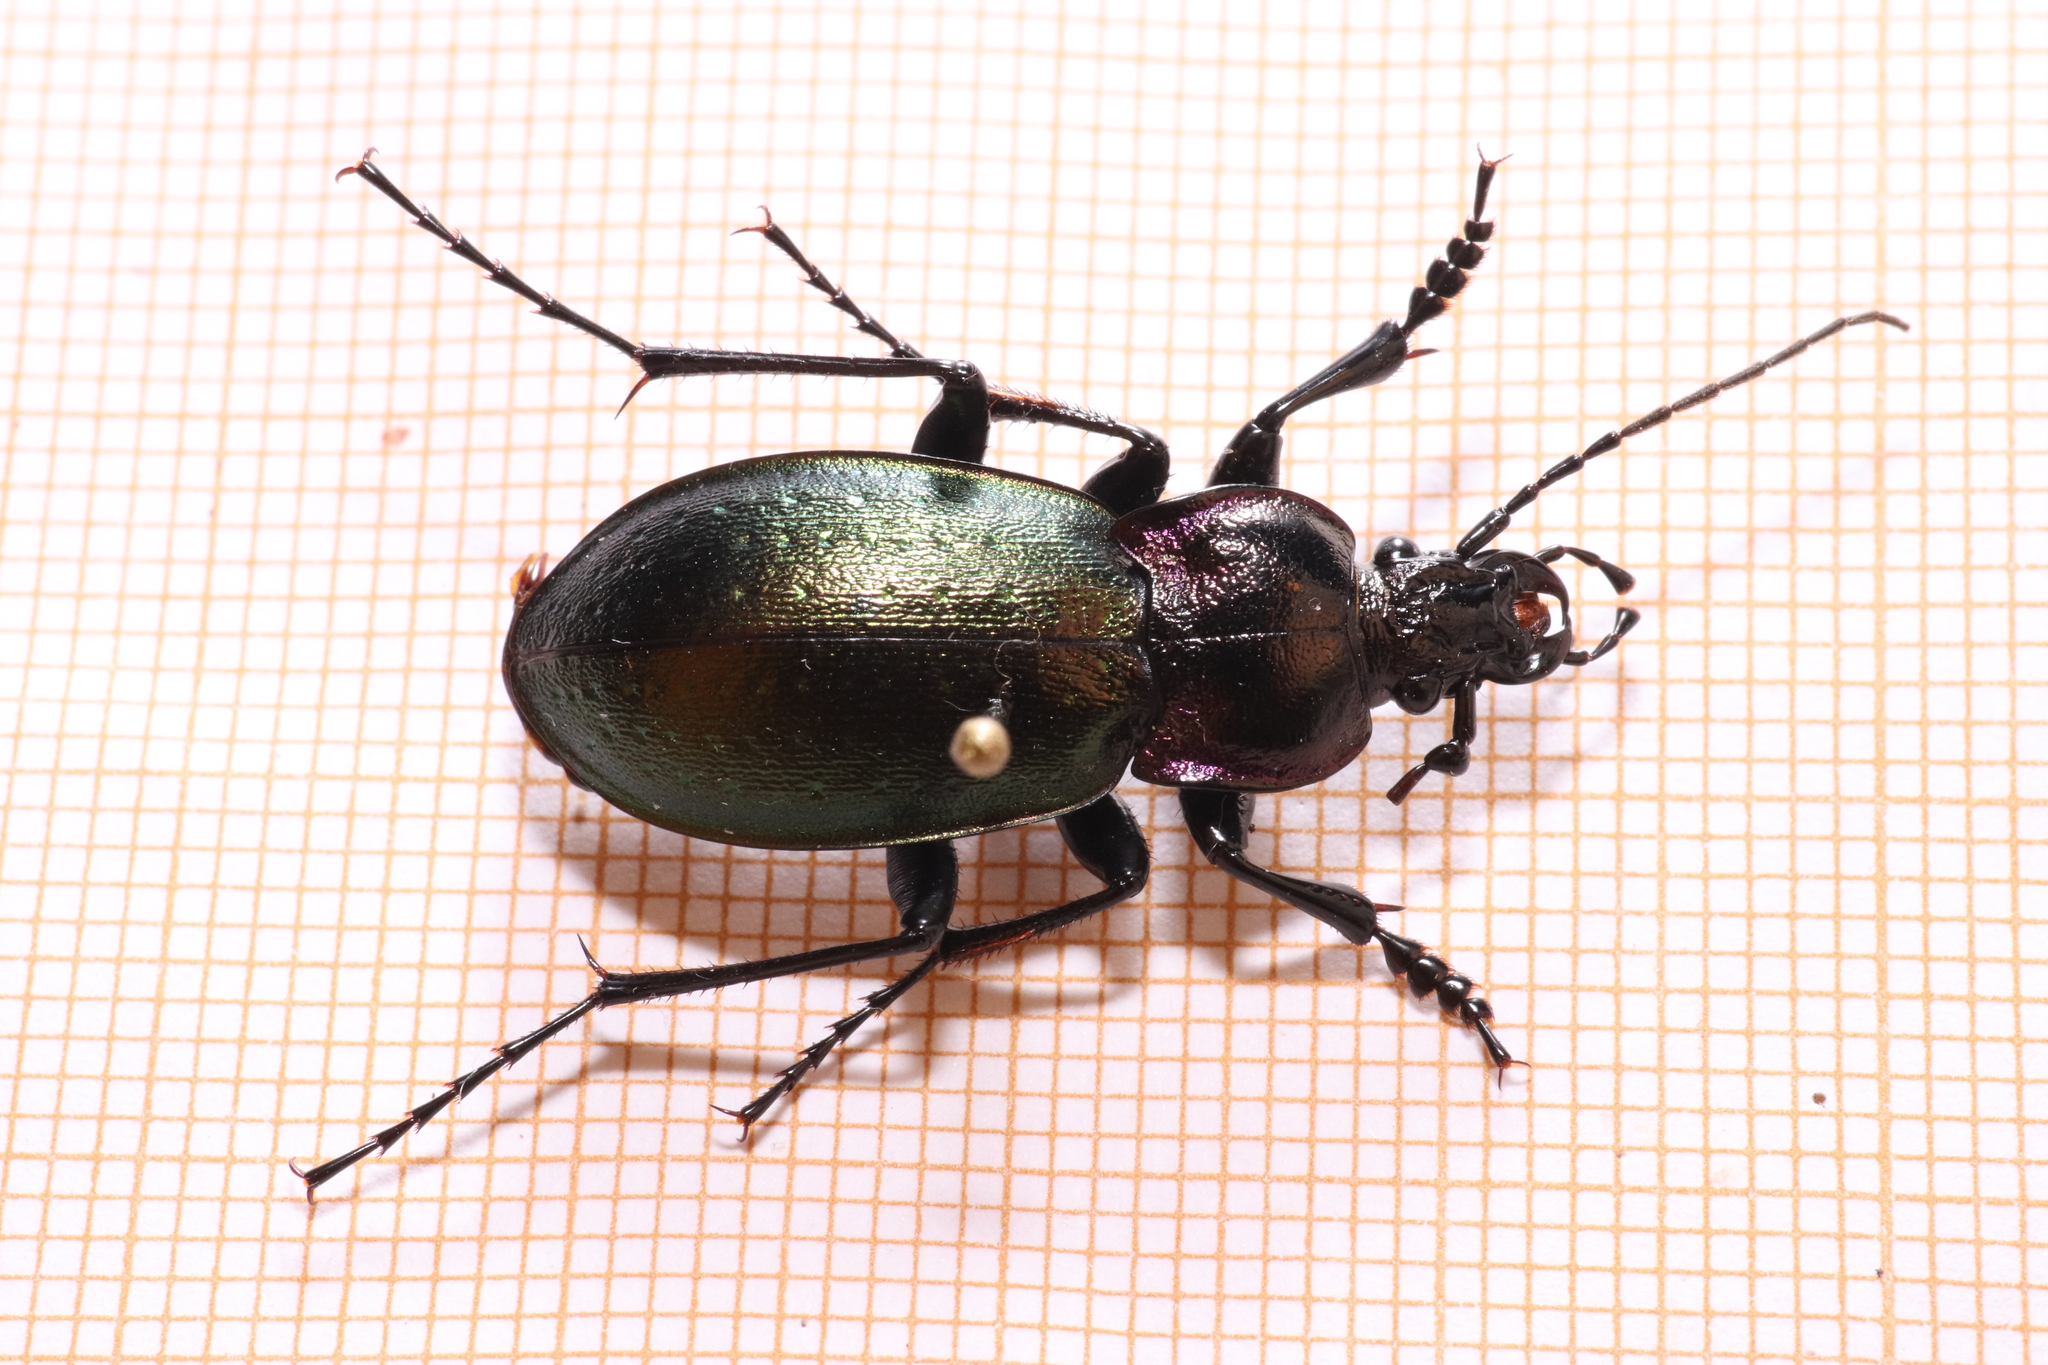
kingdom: Animalia
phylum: Arthropoda
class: Insecta
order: Coleoptera
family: Carabidae
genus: Carabus
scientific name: Carabus nemoralis
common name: European ground beetle
